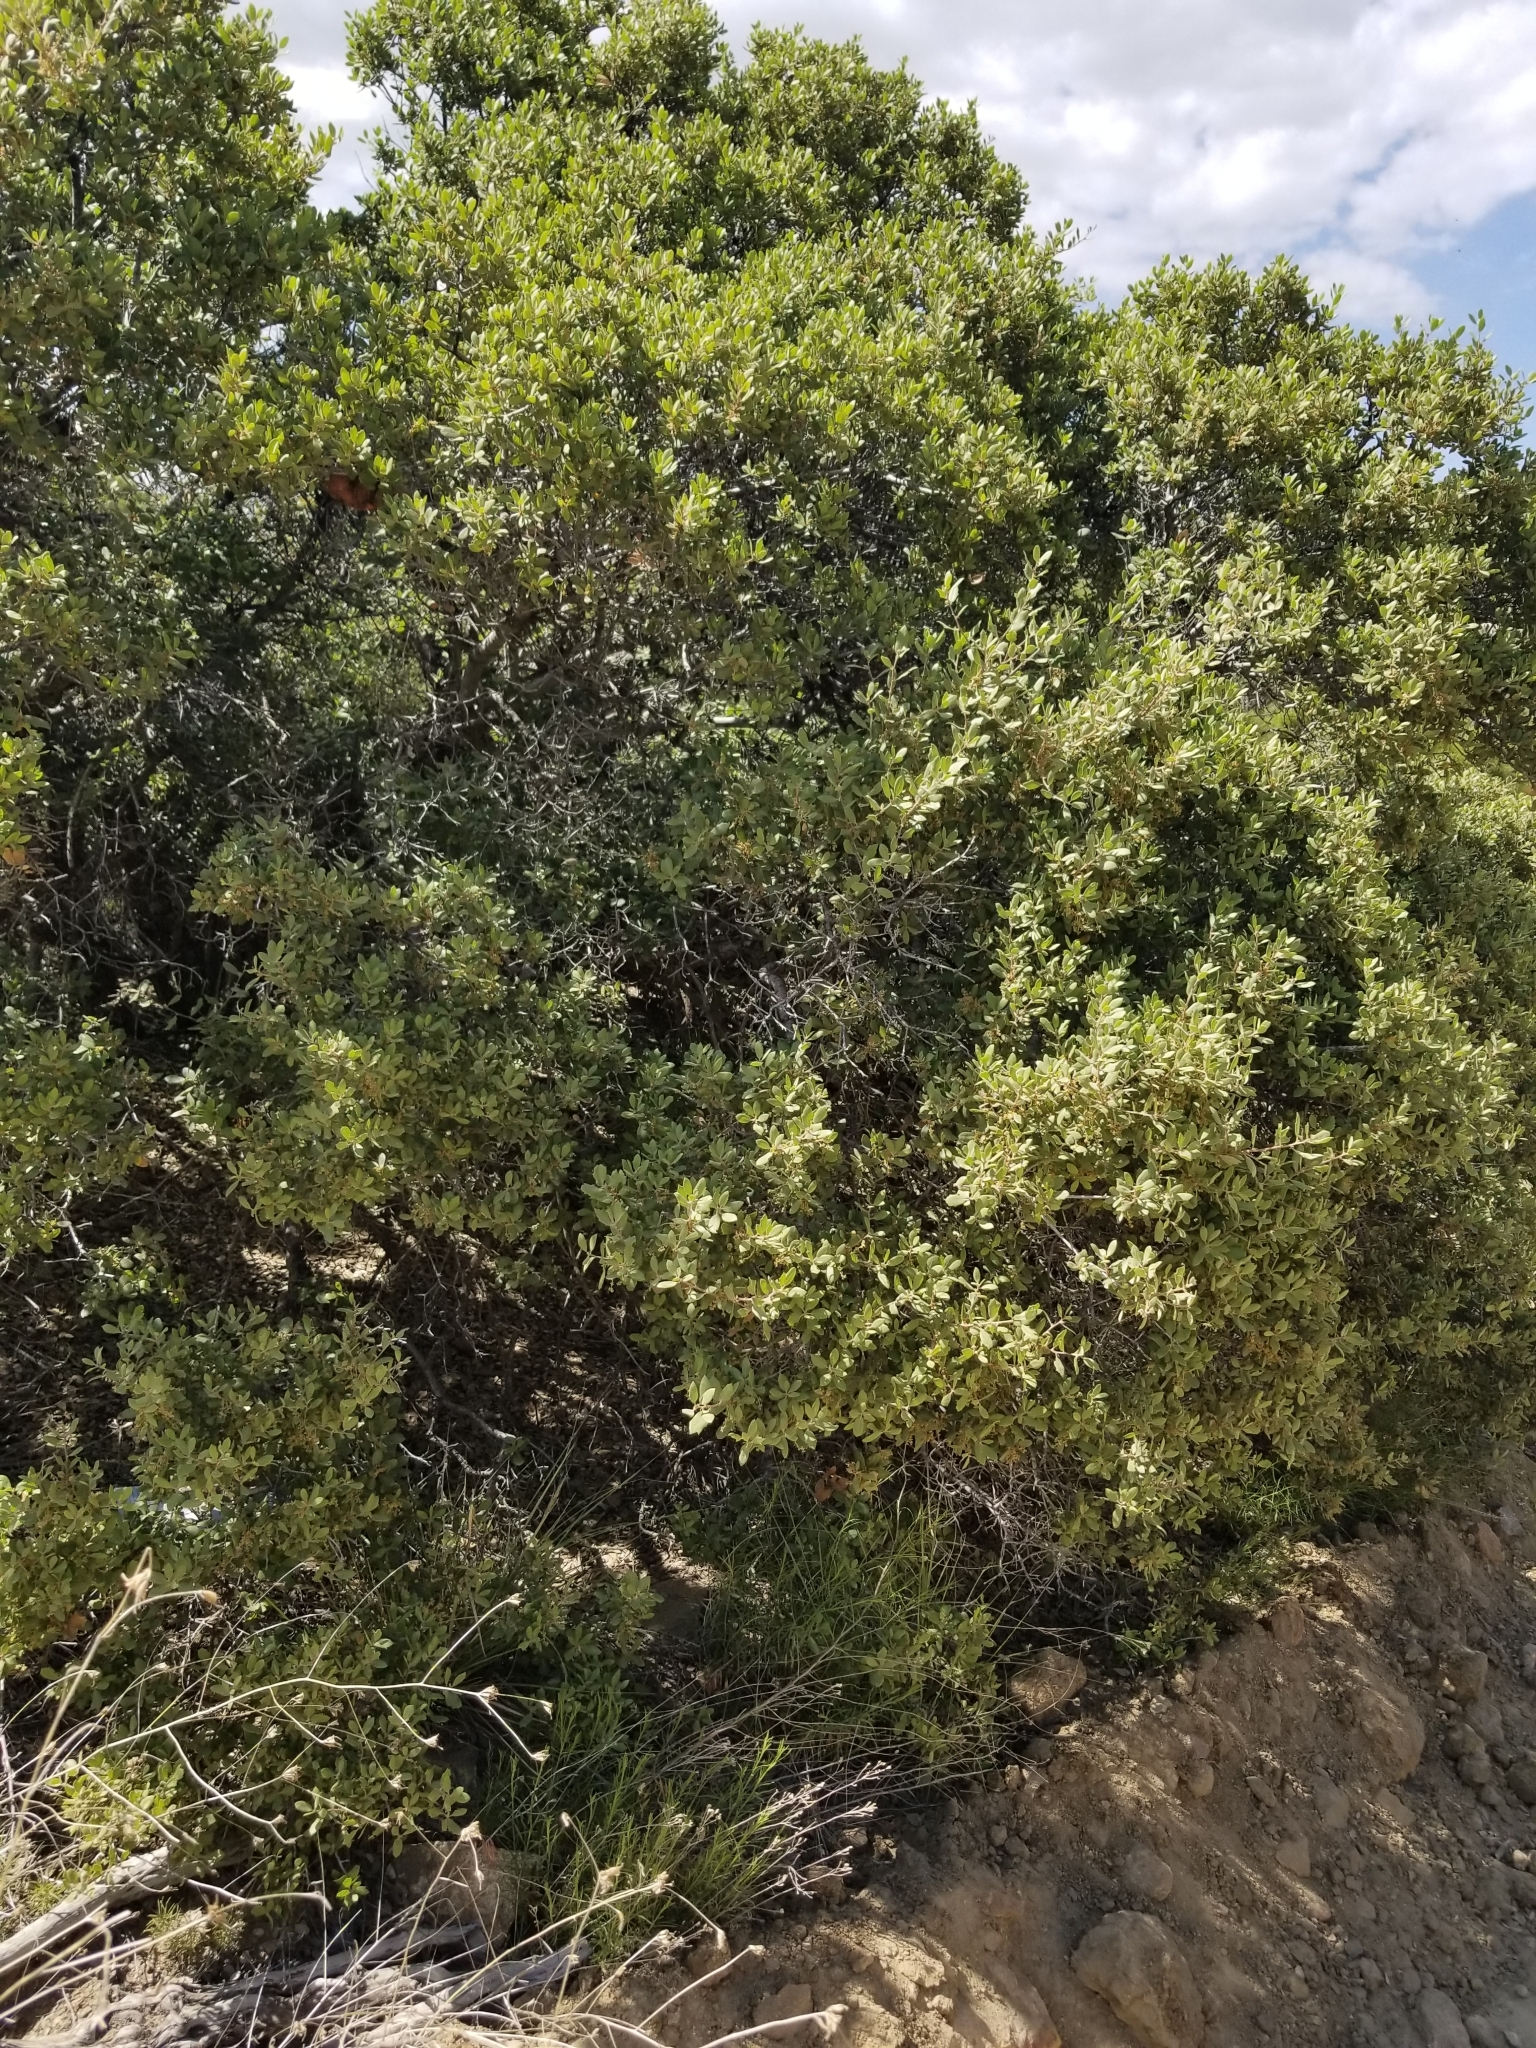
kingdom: Plantae
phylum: Tracheophyta
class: Magnoliopsida
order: Fagales
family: Fagaceae
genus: Quercus
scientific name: Quercus cornelius-mulleri
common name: Muller oak
